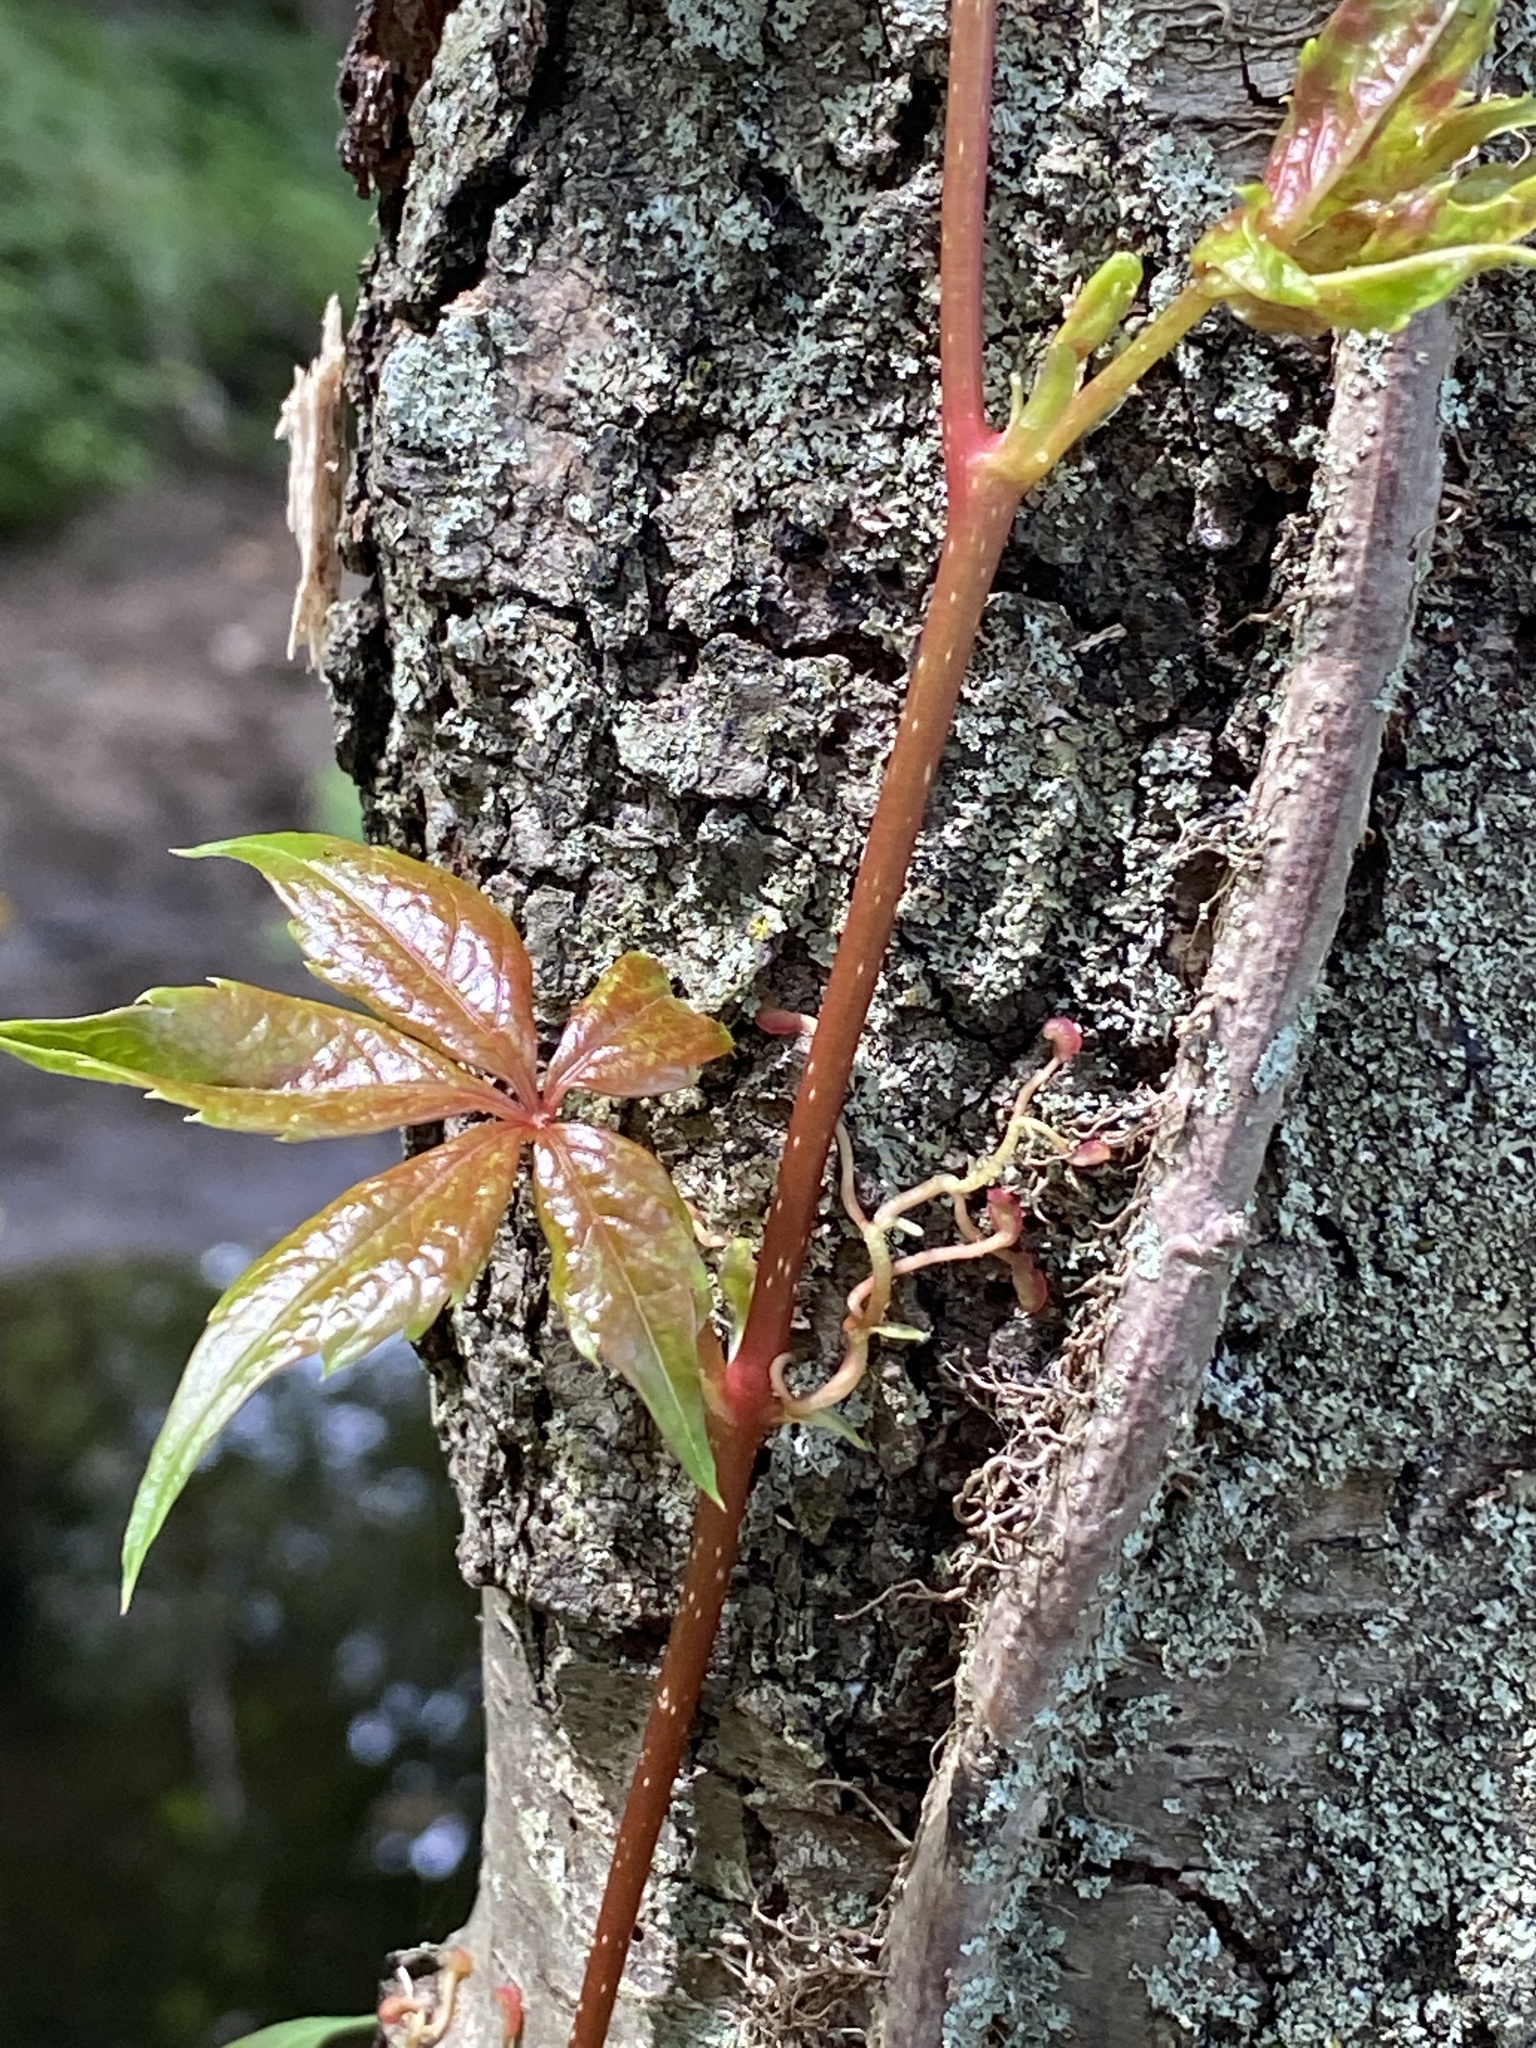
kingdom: Plantae
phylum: Tracheophyta
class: Magnoliopsida
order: Vitales
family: Vitaceae
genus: Parthenocissus
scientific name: Parthenocissus quinquefolia
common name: Virginia-creeper
